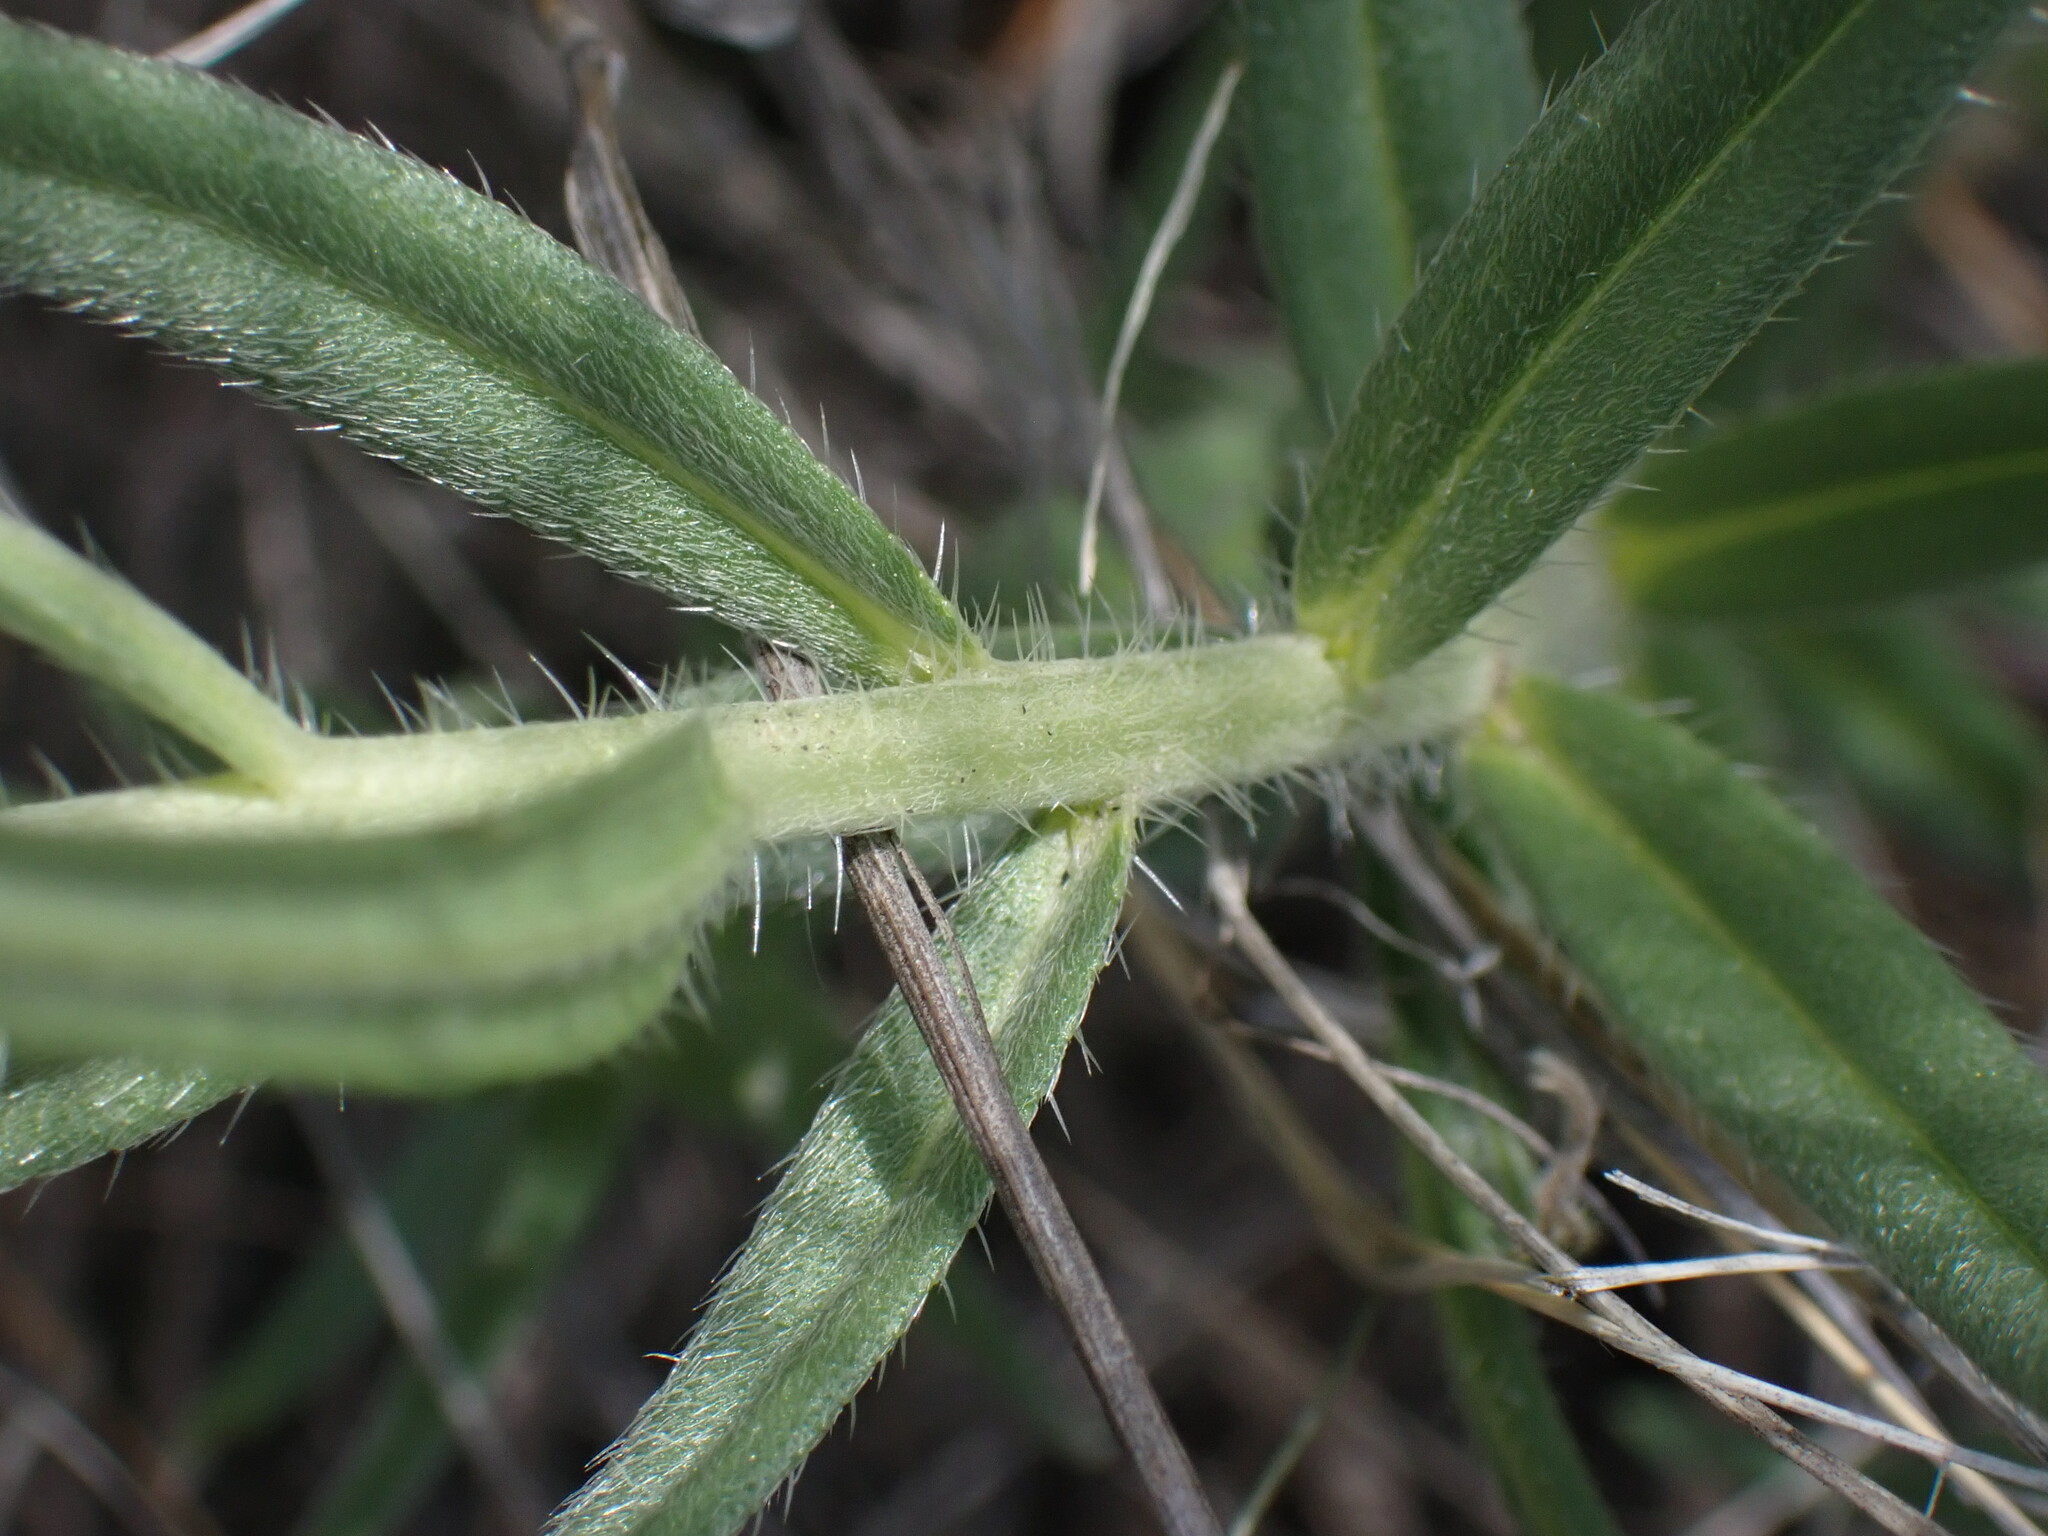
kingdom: Plantae
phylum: Tracheophyta
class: Magnoliopsida
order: Boraginales
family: Boraginaceae
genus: Lithospermum
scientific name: Lithospermum ruderale
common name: Western gromwell
